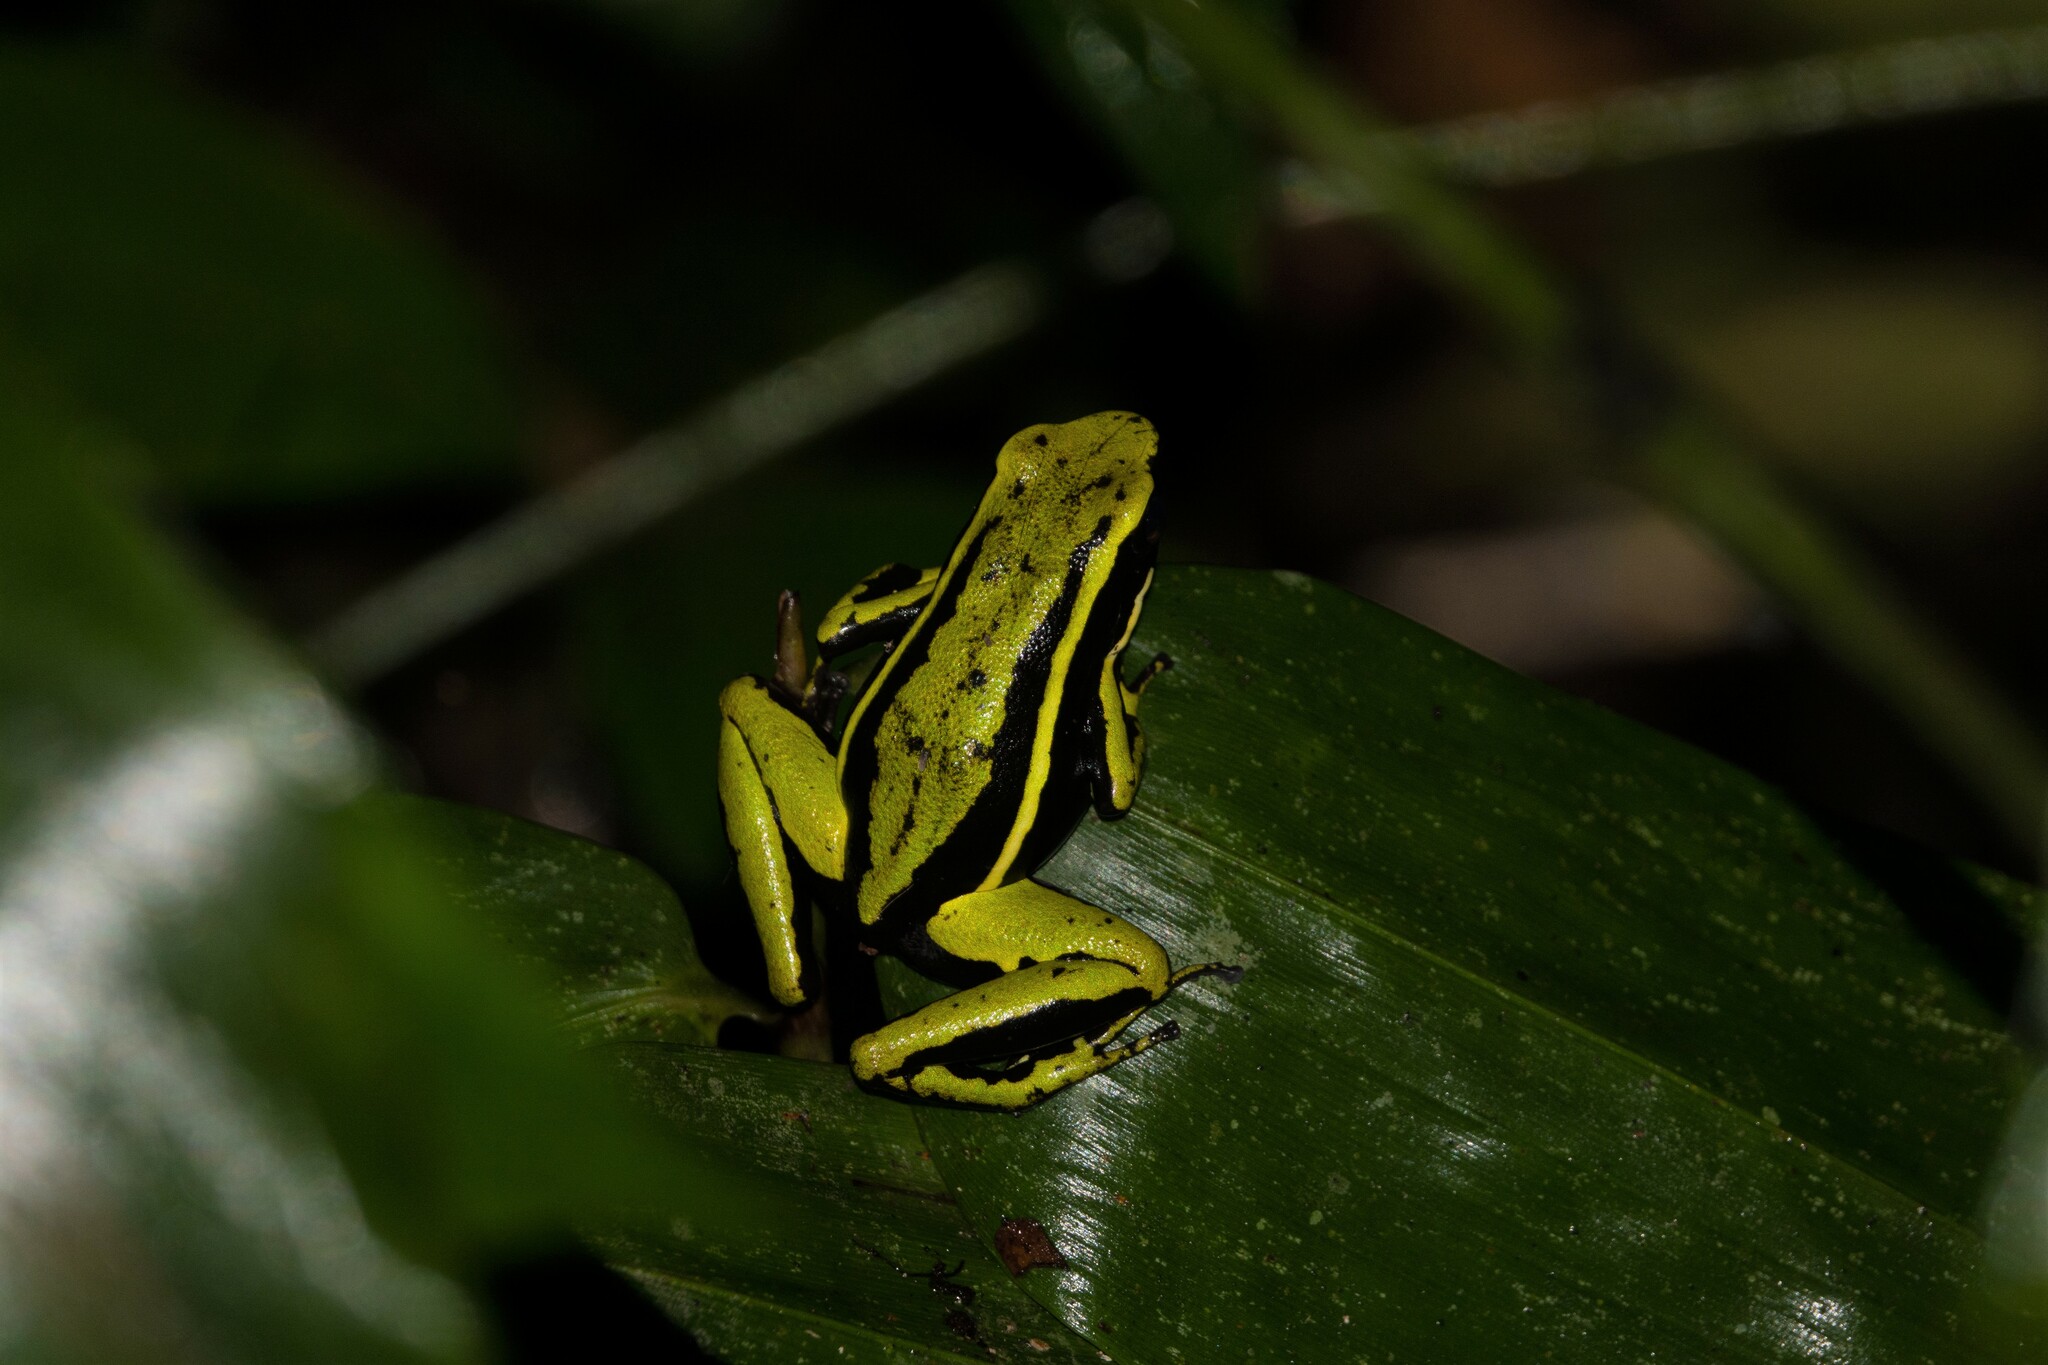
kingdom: Animalia
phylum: Chordata
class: Amphibia
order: Anura
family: Dendrobatidae
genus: Ameerega
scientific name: Ameerega trivittata
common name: Three-striped arrow-poison frog
